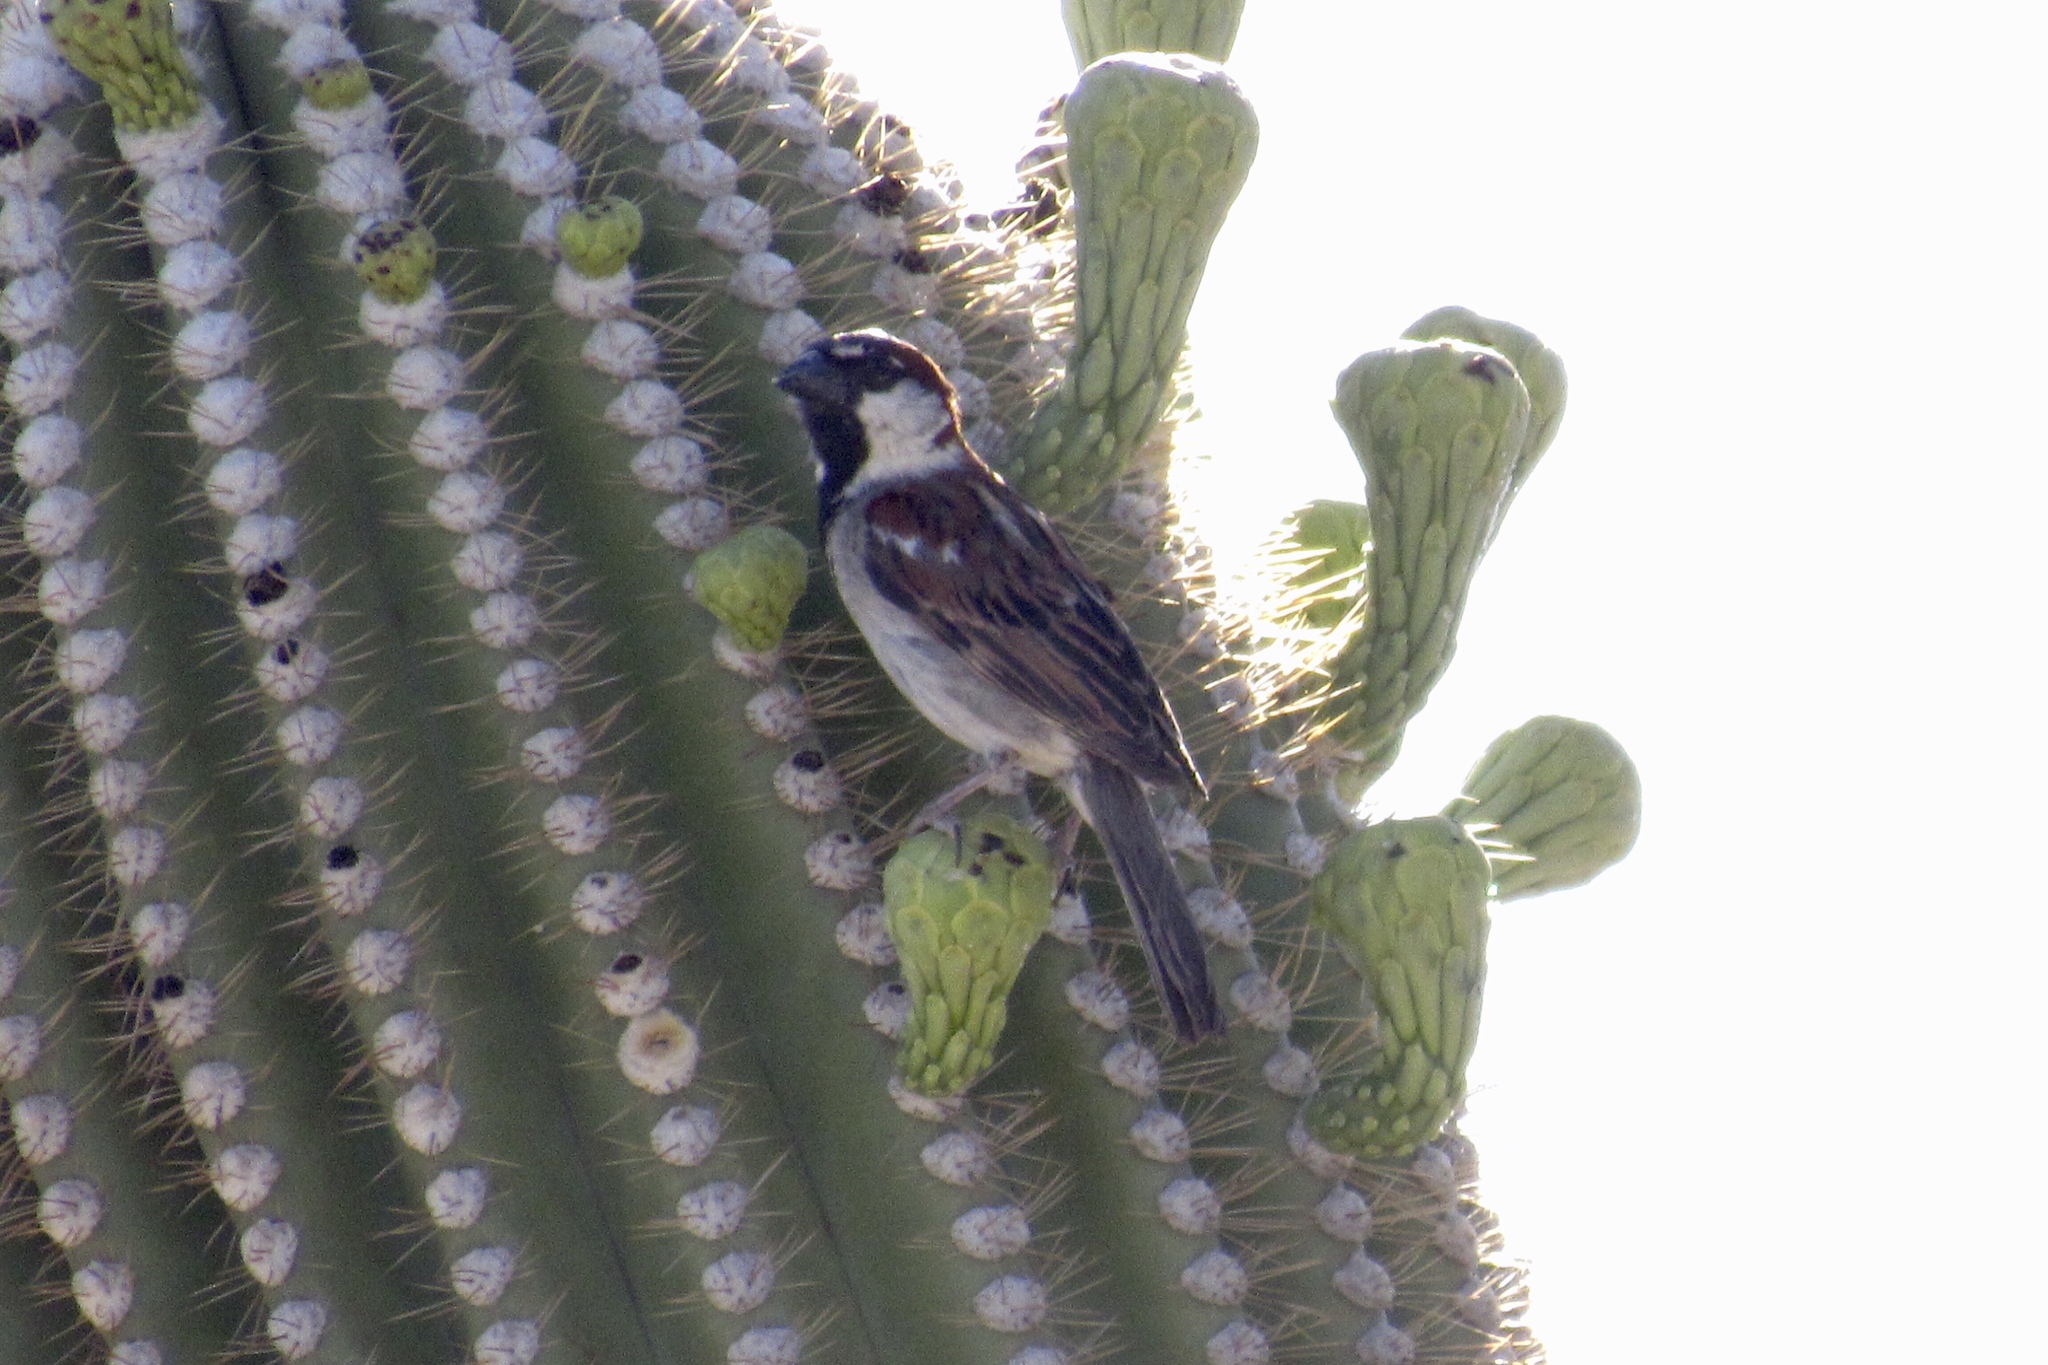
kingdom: Animalia
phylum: Chordata
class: Aves
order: Passeriformes
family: Passeridae
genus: Passer
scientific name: Passer domesticus
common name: House sparrow
